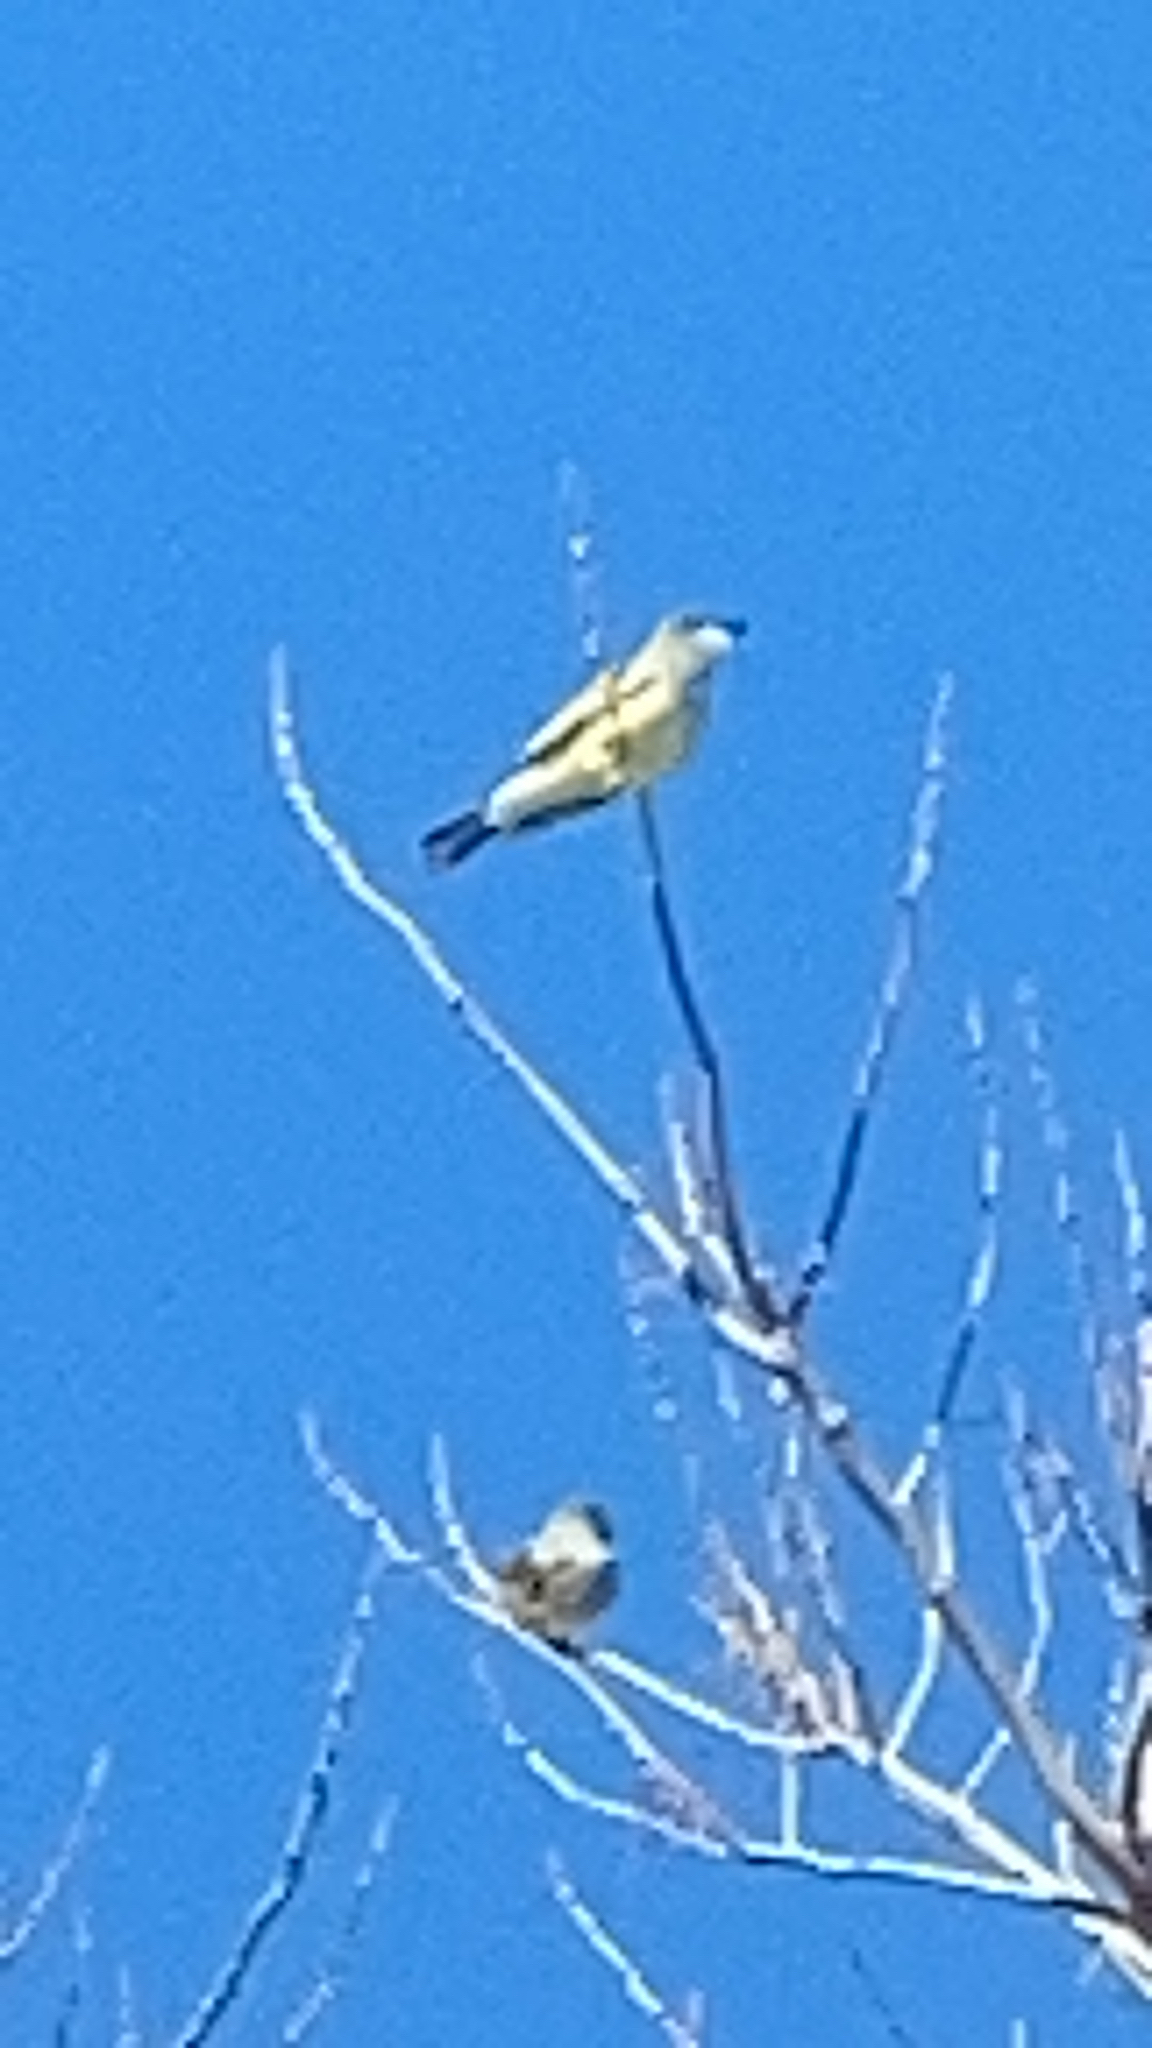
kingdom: Animalia
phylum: Chordata
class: Aves
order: Passeriformes
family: Tyrannidae
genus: Tyrannus
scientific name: Tyrannus vociferans
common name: Cassin's kingbird
